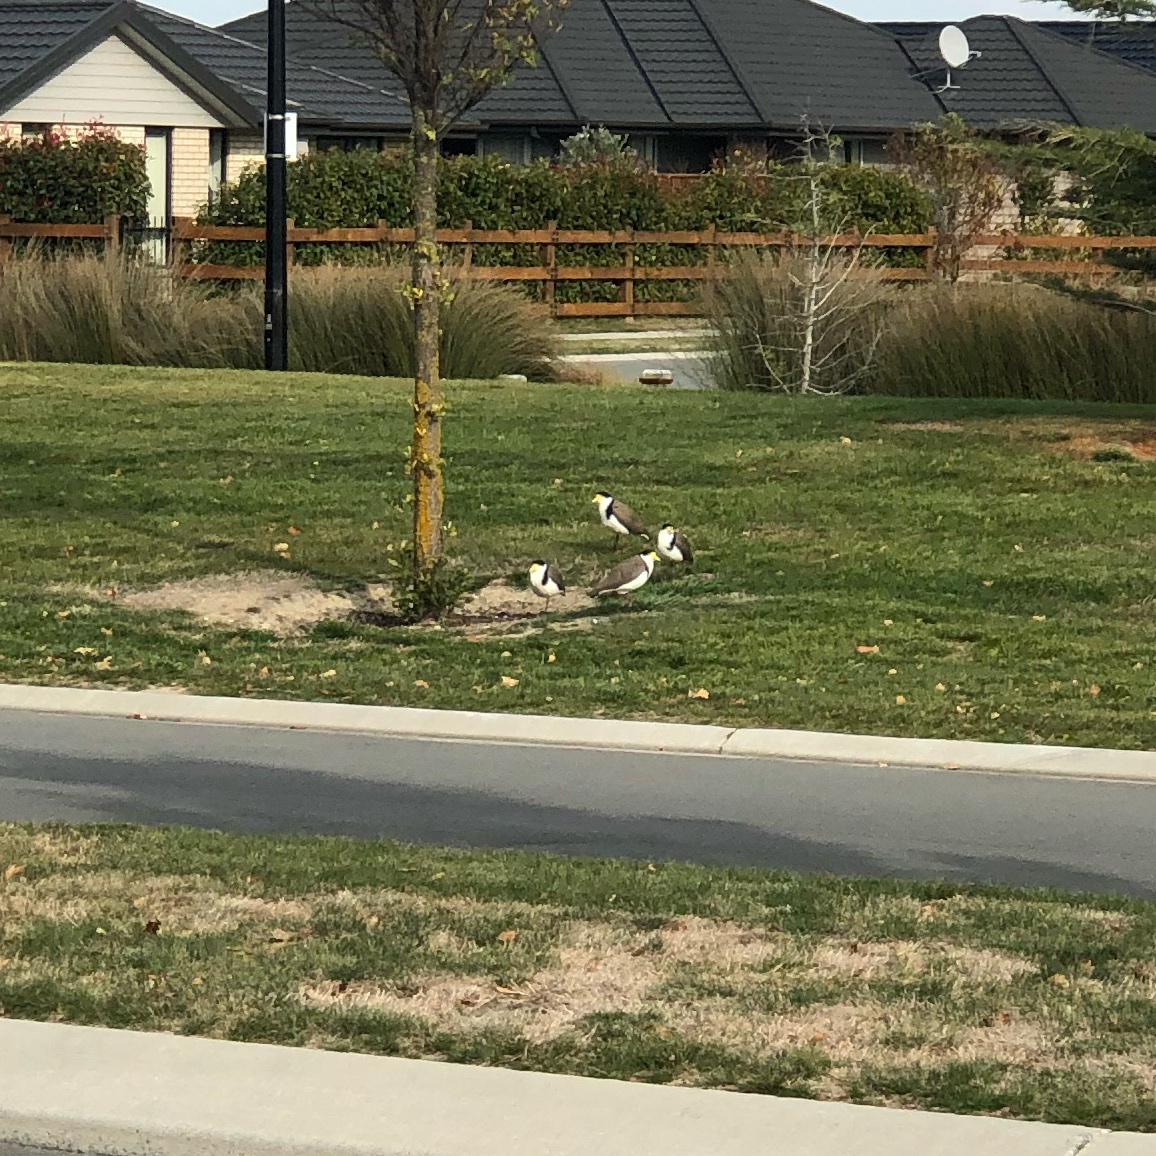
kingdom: Animalia
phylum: Chordata
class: Aves
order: Charadriiformes
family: Charadriidae
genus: Vanellus
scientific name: Vanellus miles
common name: Masked lapwing
